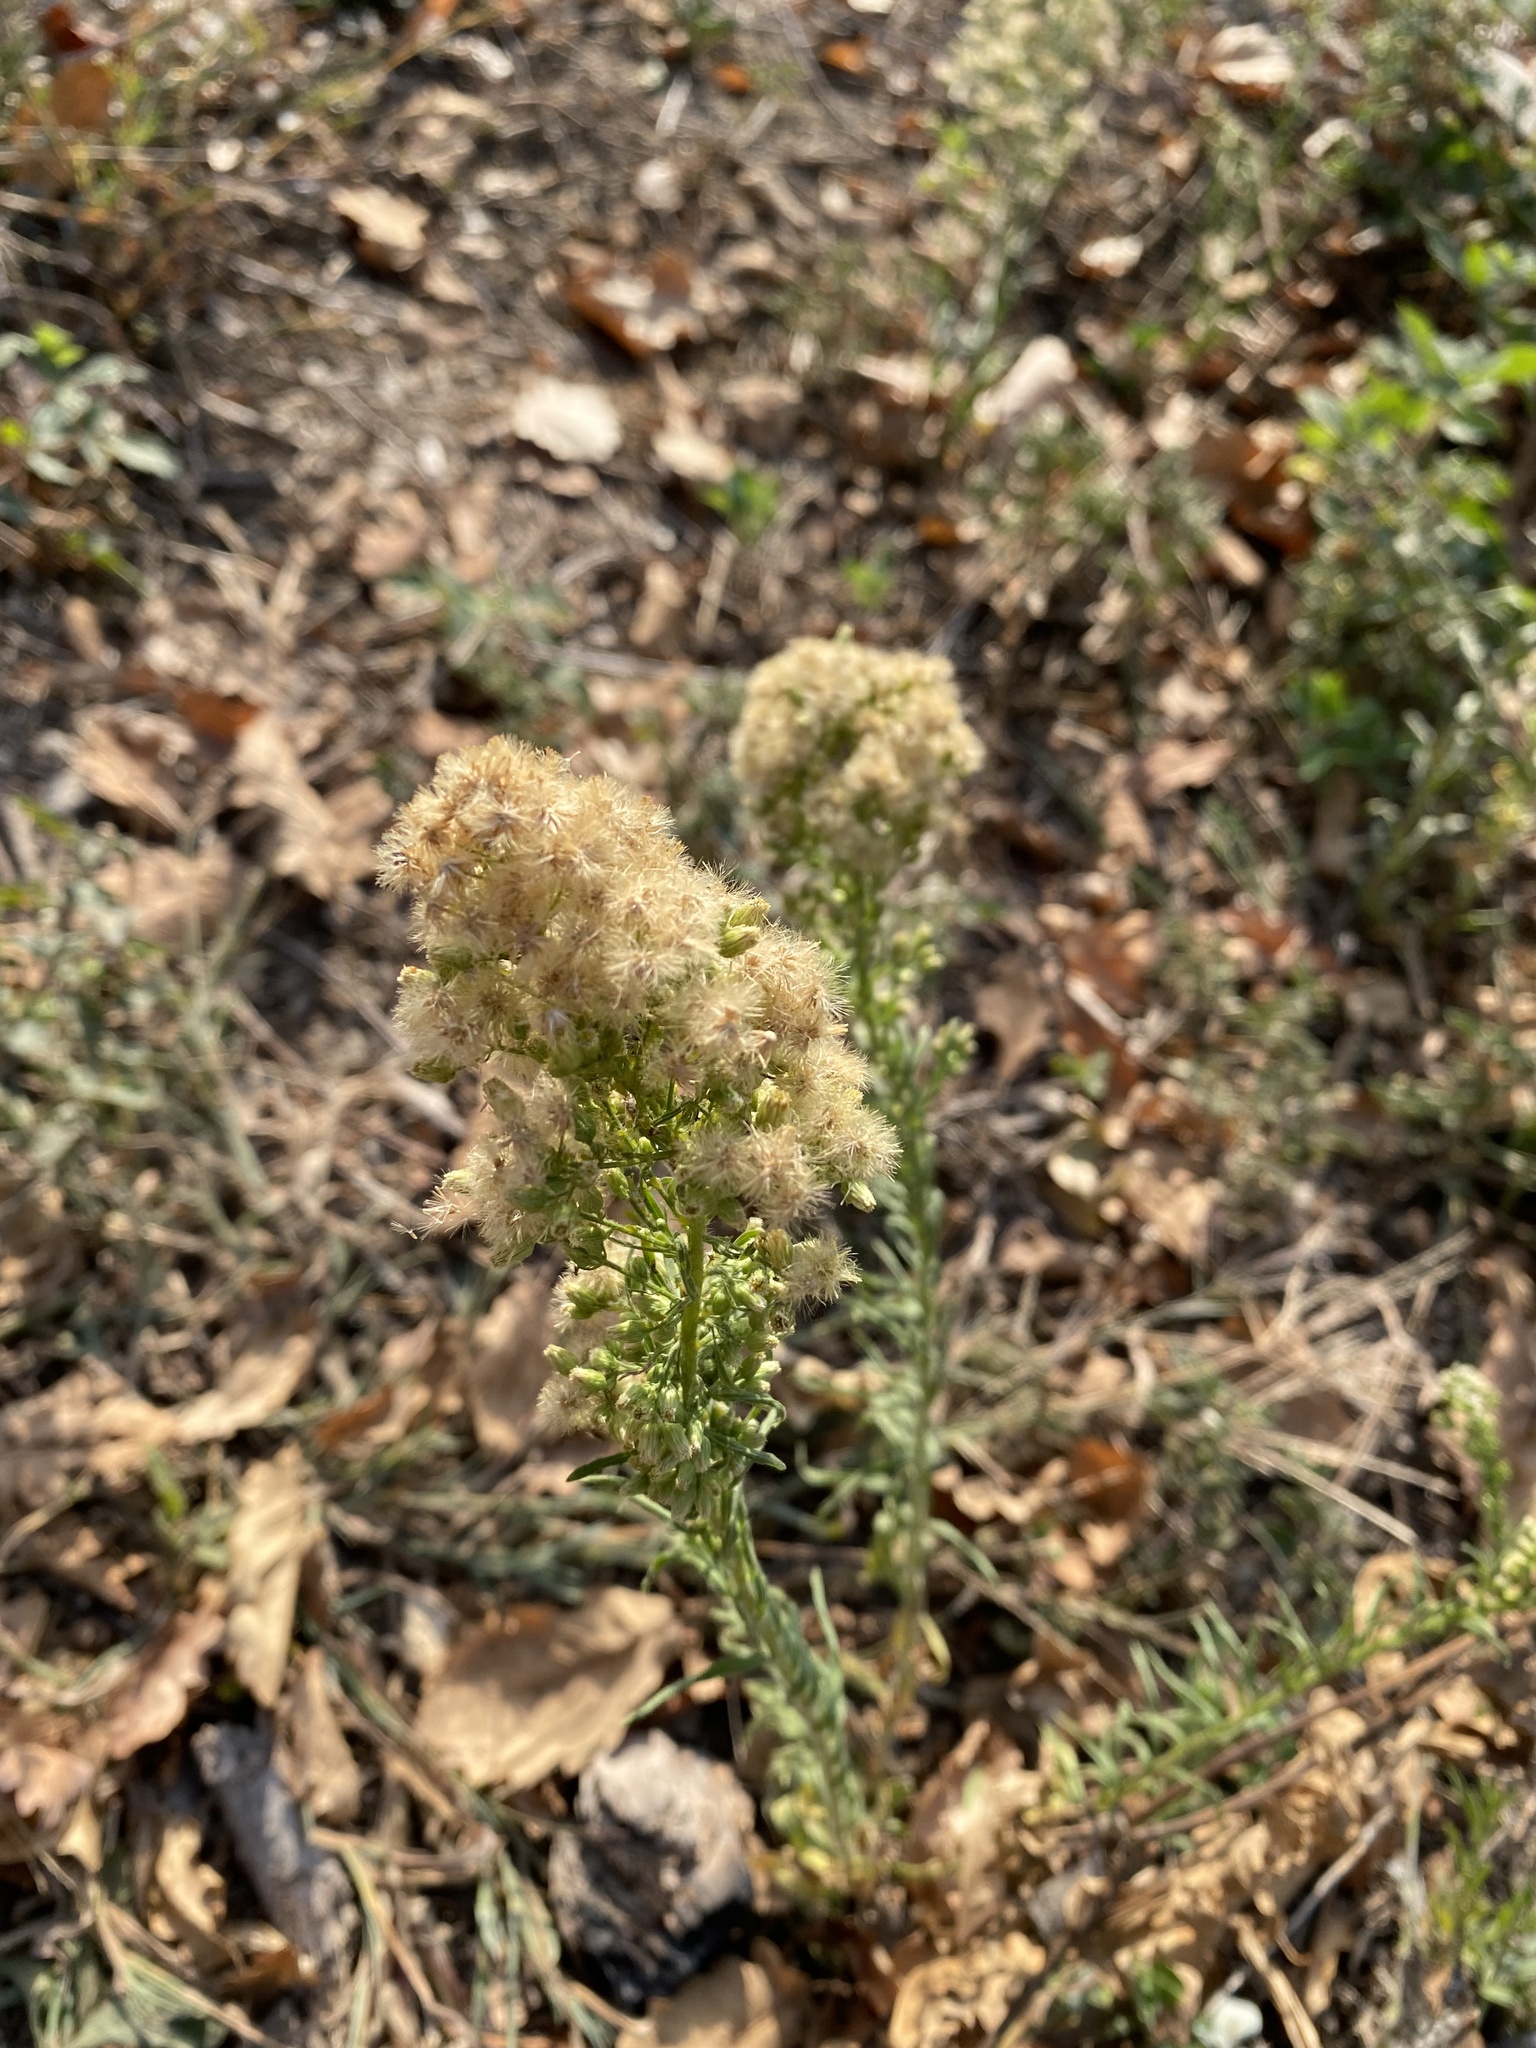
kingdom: Plantae
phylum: Tracheophyta
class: Magnoliopsida
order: Asterales
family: Asteraceae
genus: Erigeron
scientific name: Erigeron canadensis
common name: Canadian fleabane
